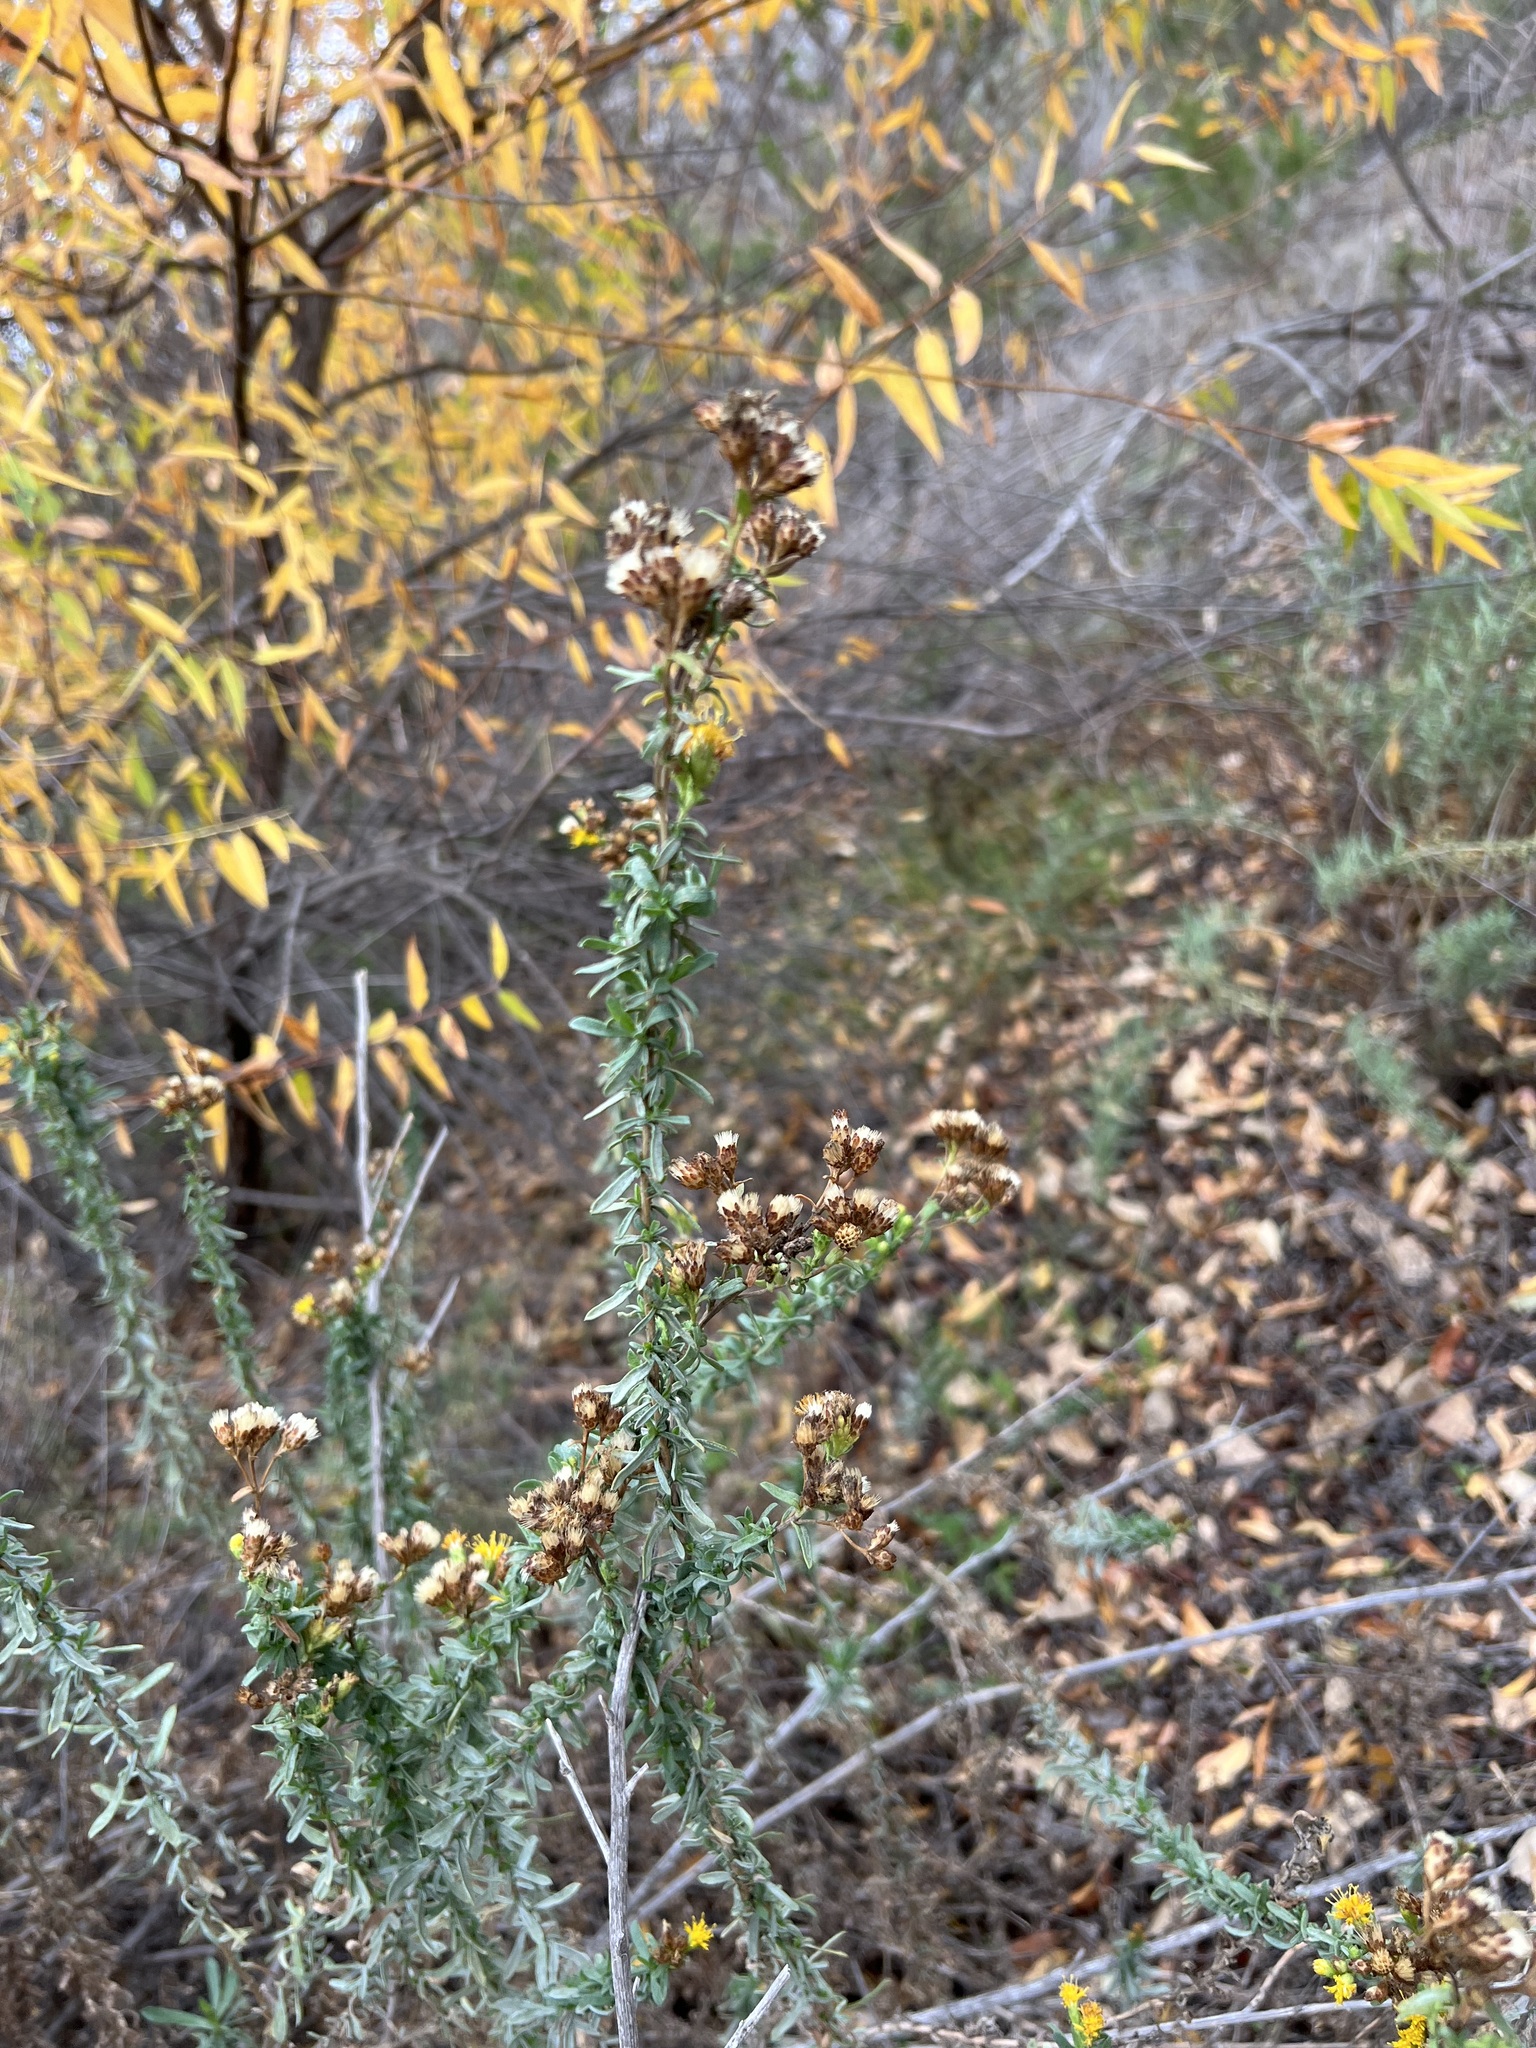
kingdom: Plantae
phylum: Tracheophyta
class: Magnoliopsida
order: Asterales
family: Asteraceae
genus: Isocoma
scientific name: Isocoma menziesii
